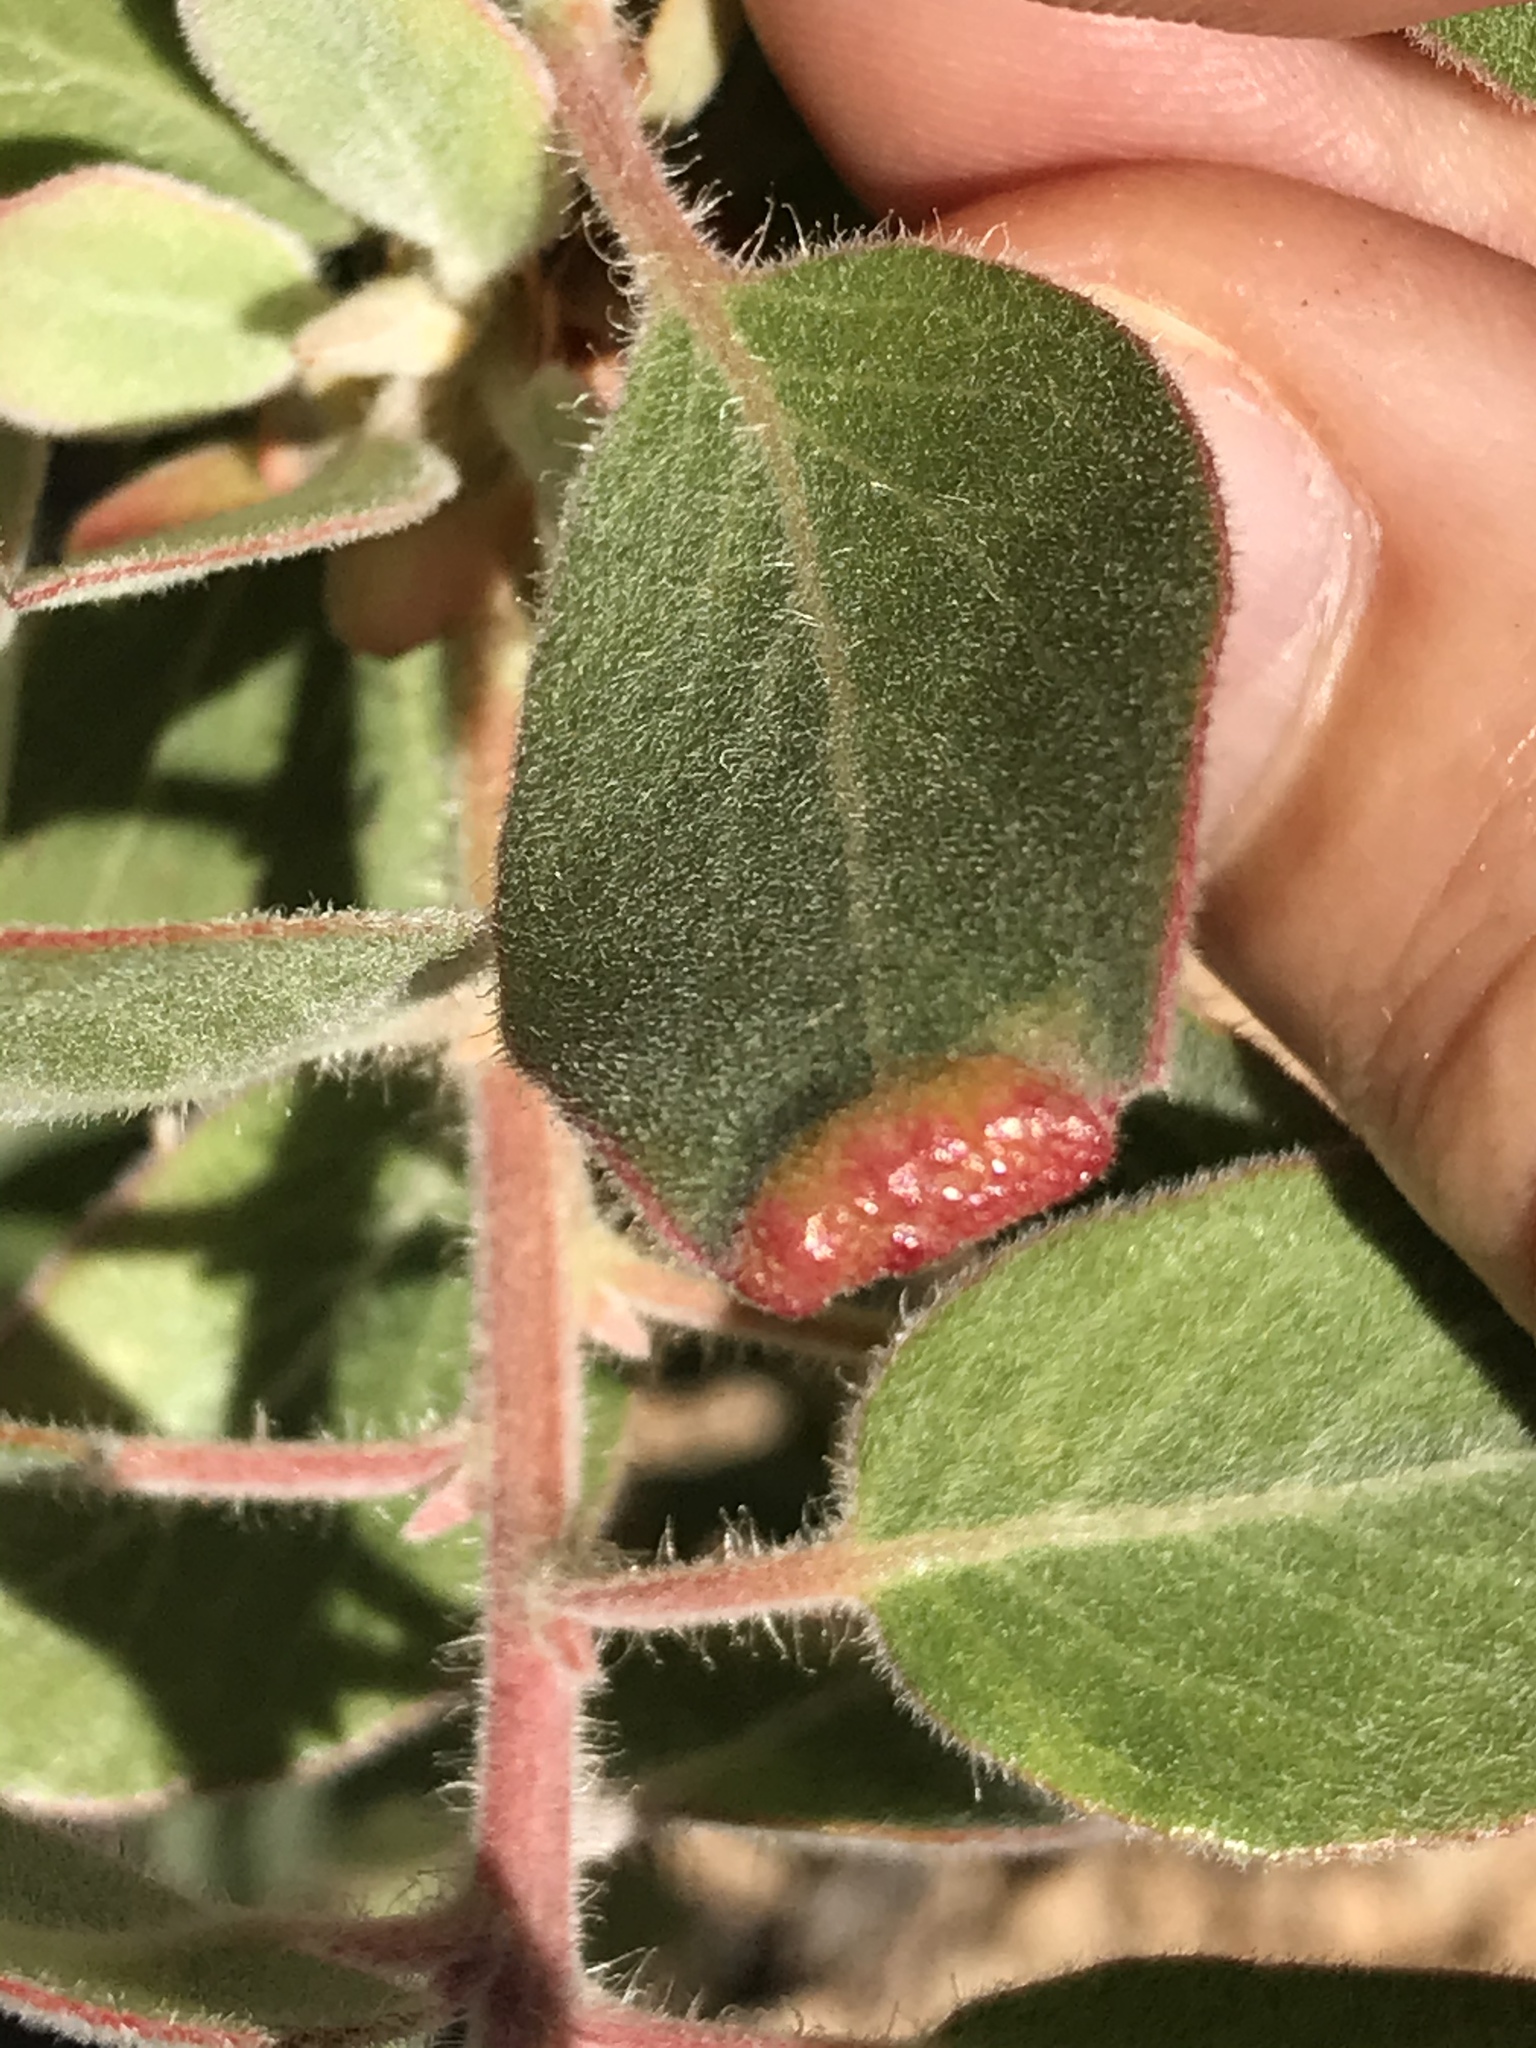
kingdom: Animalia
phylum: Arthropoda
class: Insecta
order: Hemiptera
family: Aphididae
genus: Tamalia
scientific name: Tamalia coweni
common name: Manzanita leafgall aphid
